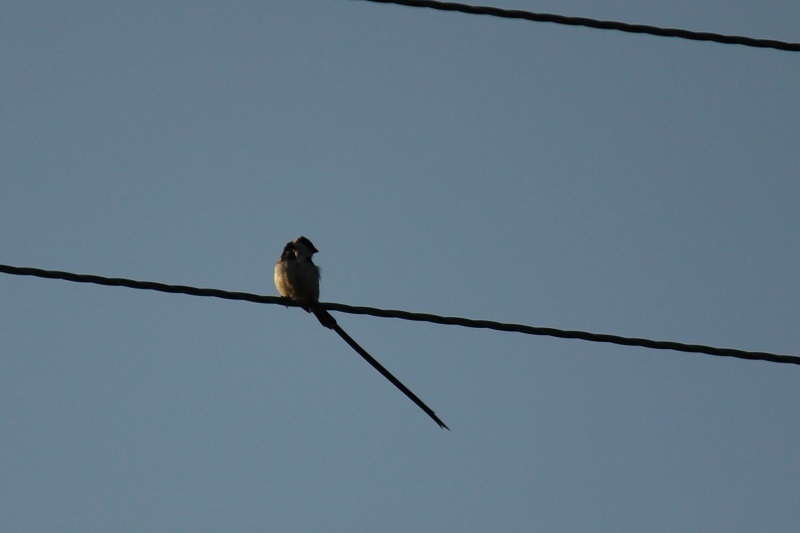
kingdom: Animalia
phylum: Chordata
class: Aves
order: Passeriformes
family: Viduidae
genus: Vidua
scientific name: Vidua macroura
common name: Pin-tailed whydah
